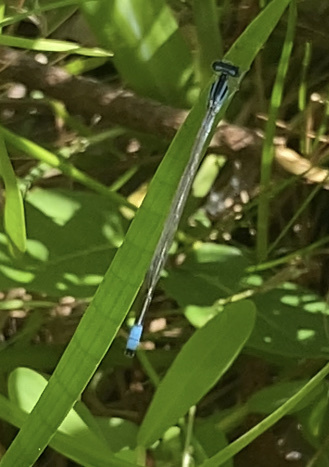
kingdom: Animalia
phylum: Arthropoda
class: Insecta
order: Odonata
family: Coenagrionidae
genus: Enallagma
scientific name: Enallagma divagans
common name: Turquoise bluet
